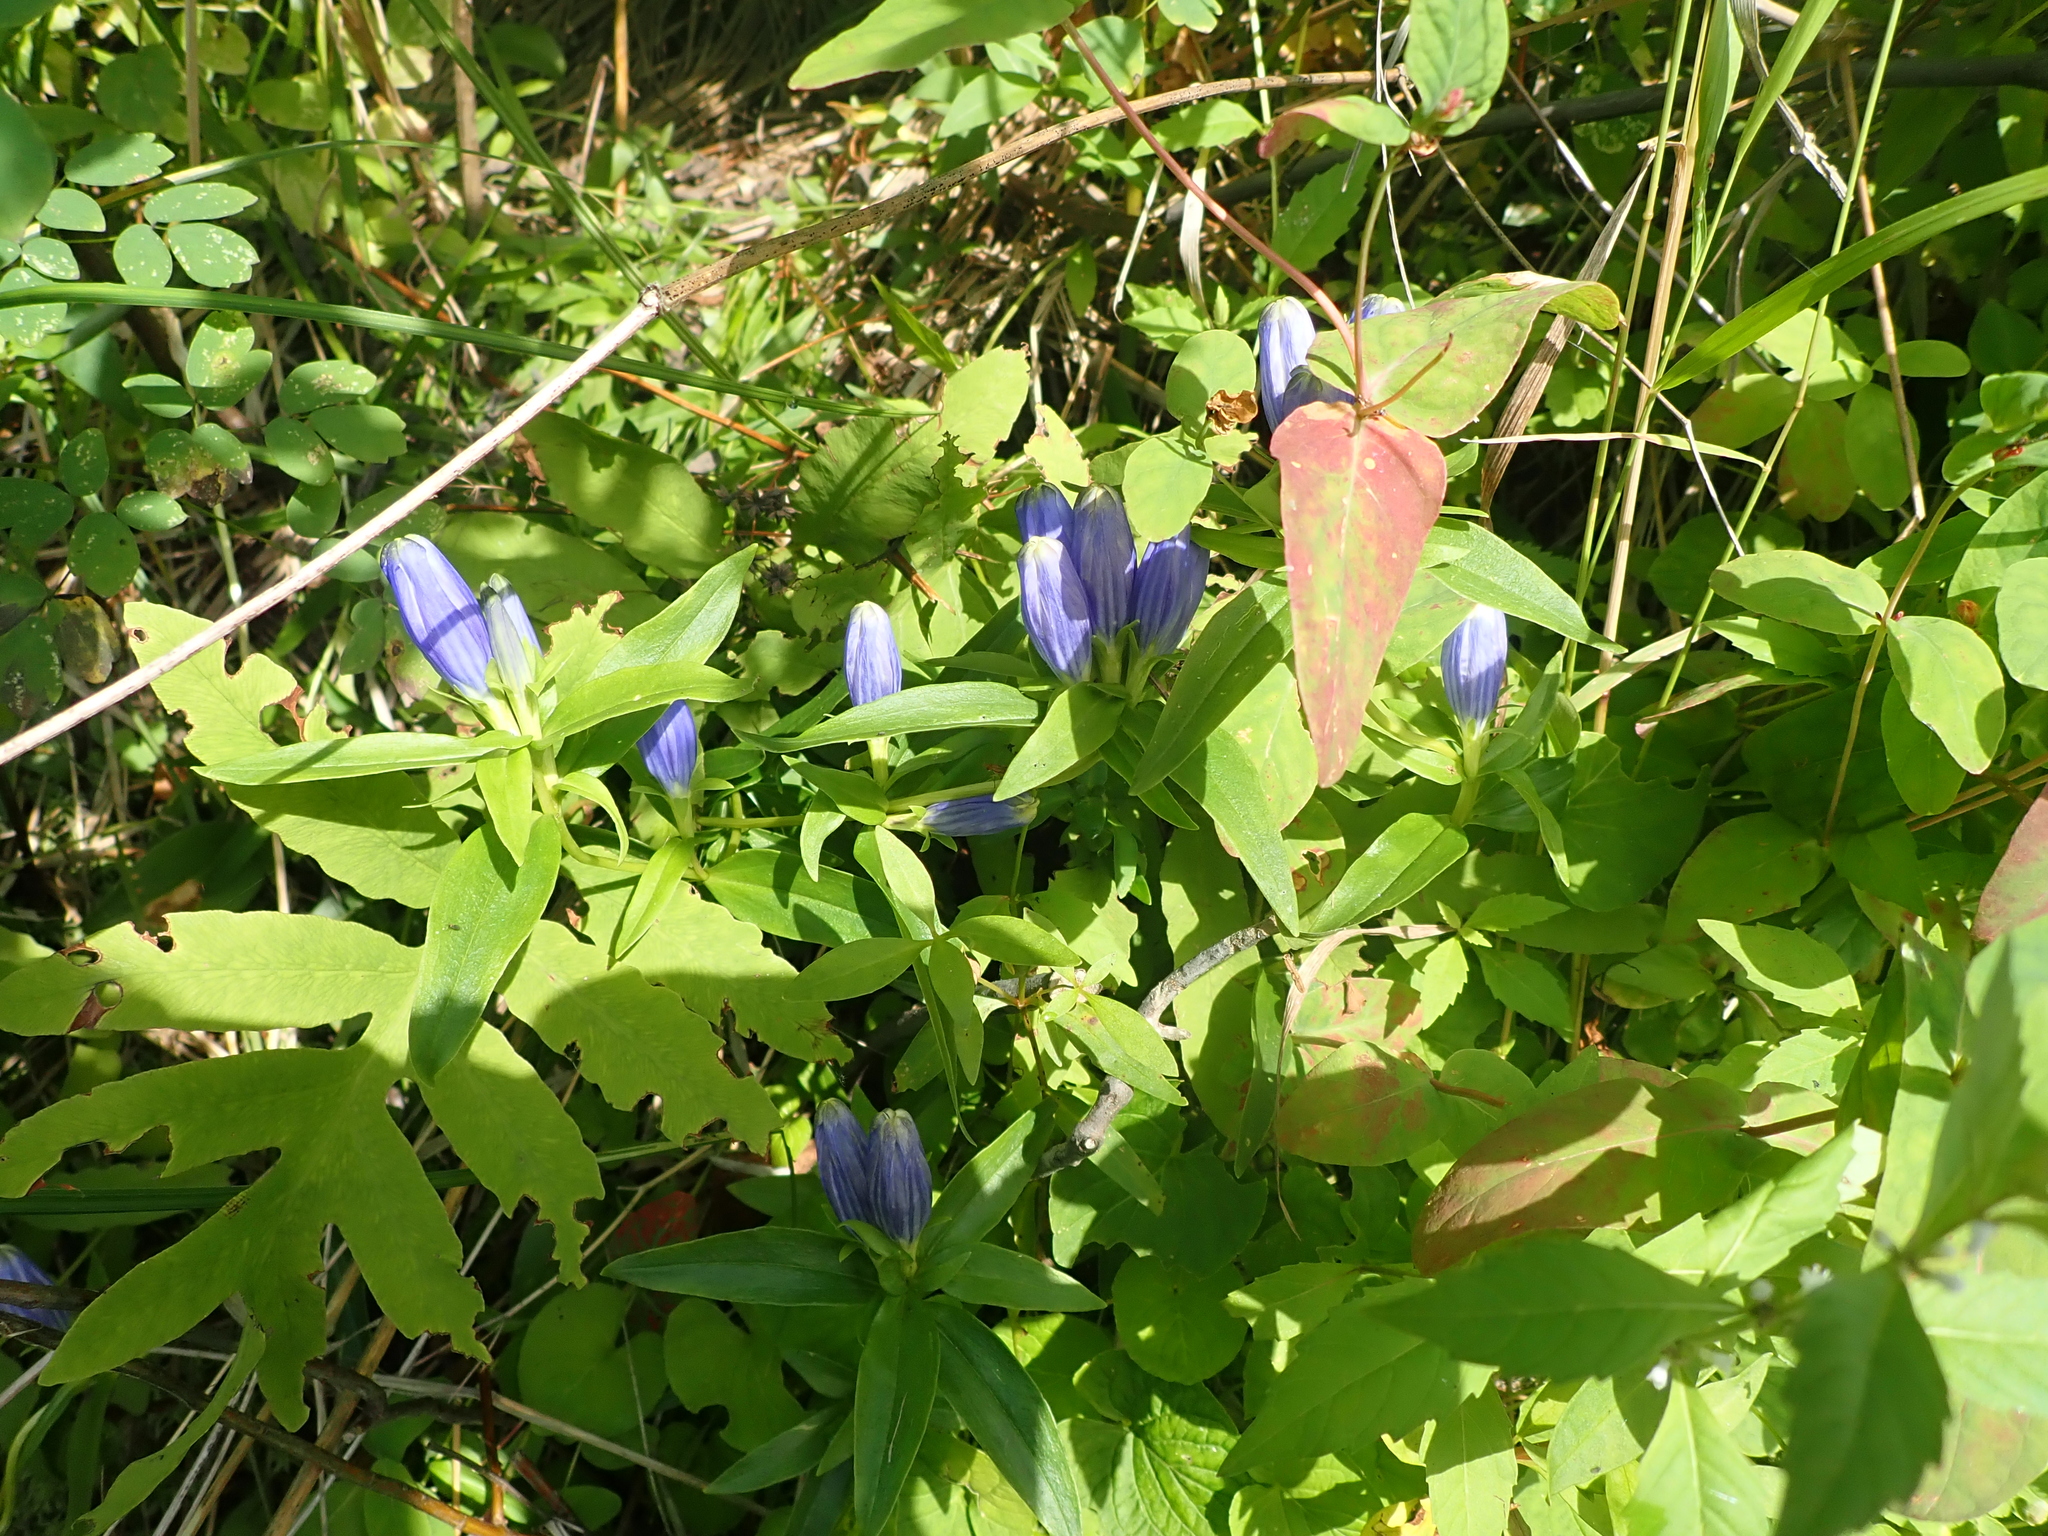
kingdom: Plantae
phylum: Tracheophyta
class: Magnoliopsida
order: Gentianales
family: Gentianaceae
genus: Gentiana
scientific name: Gentiana andrewsii
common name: Bottle gentian
